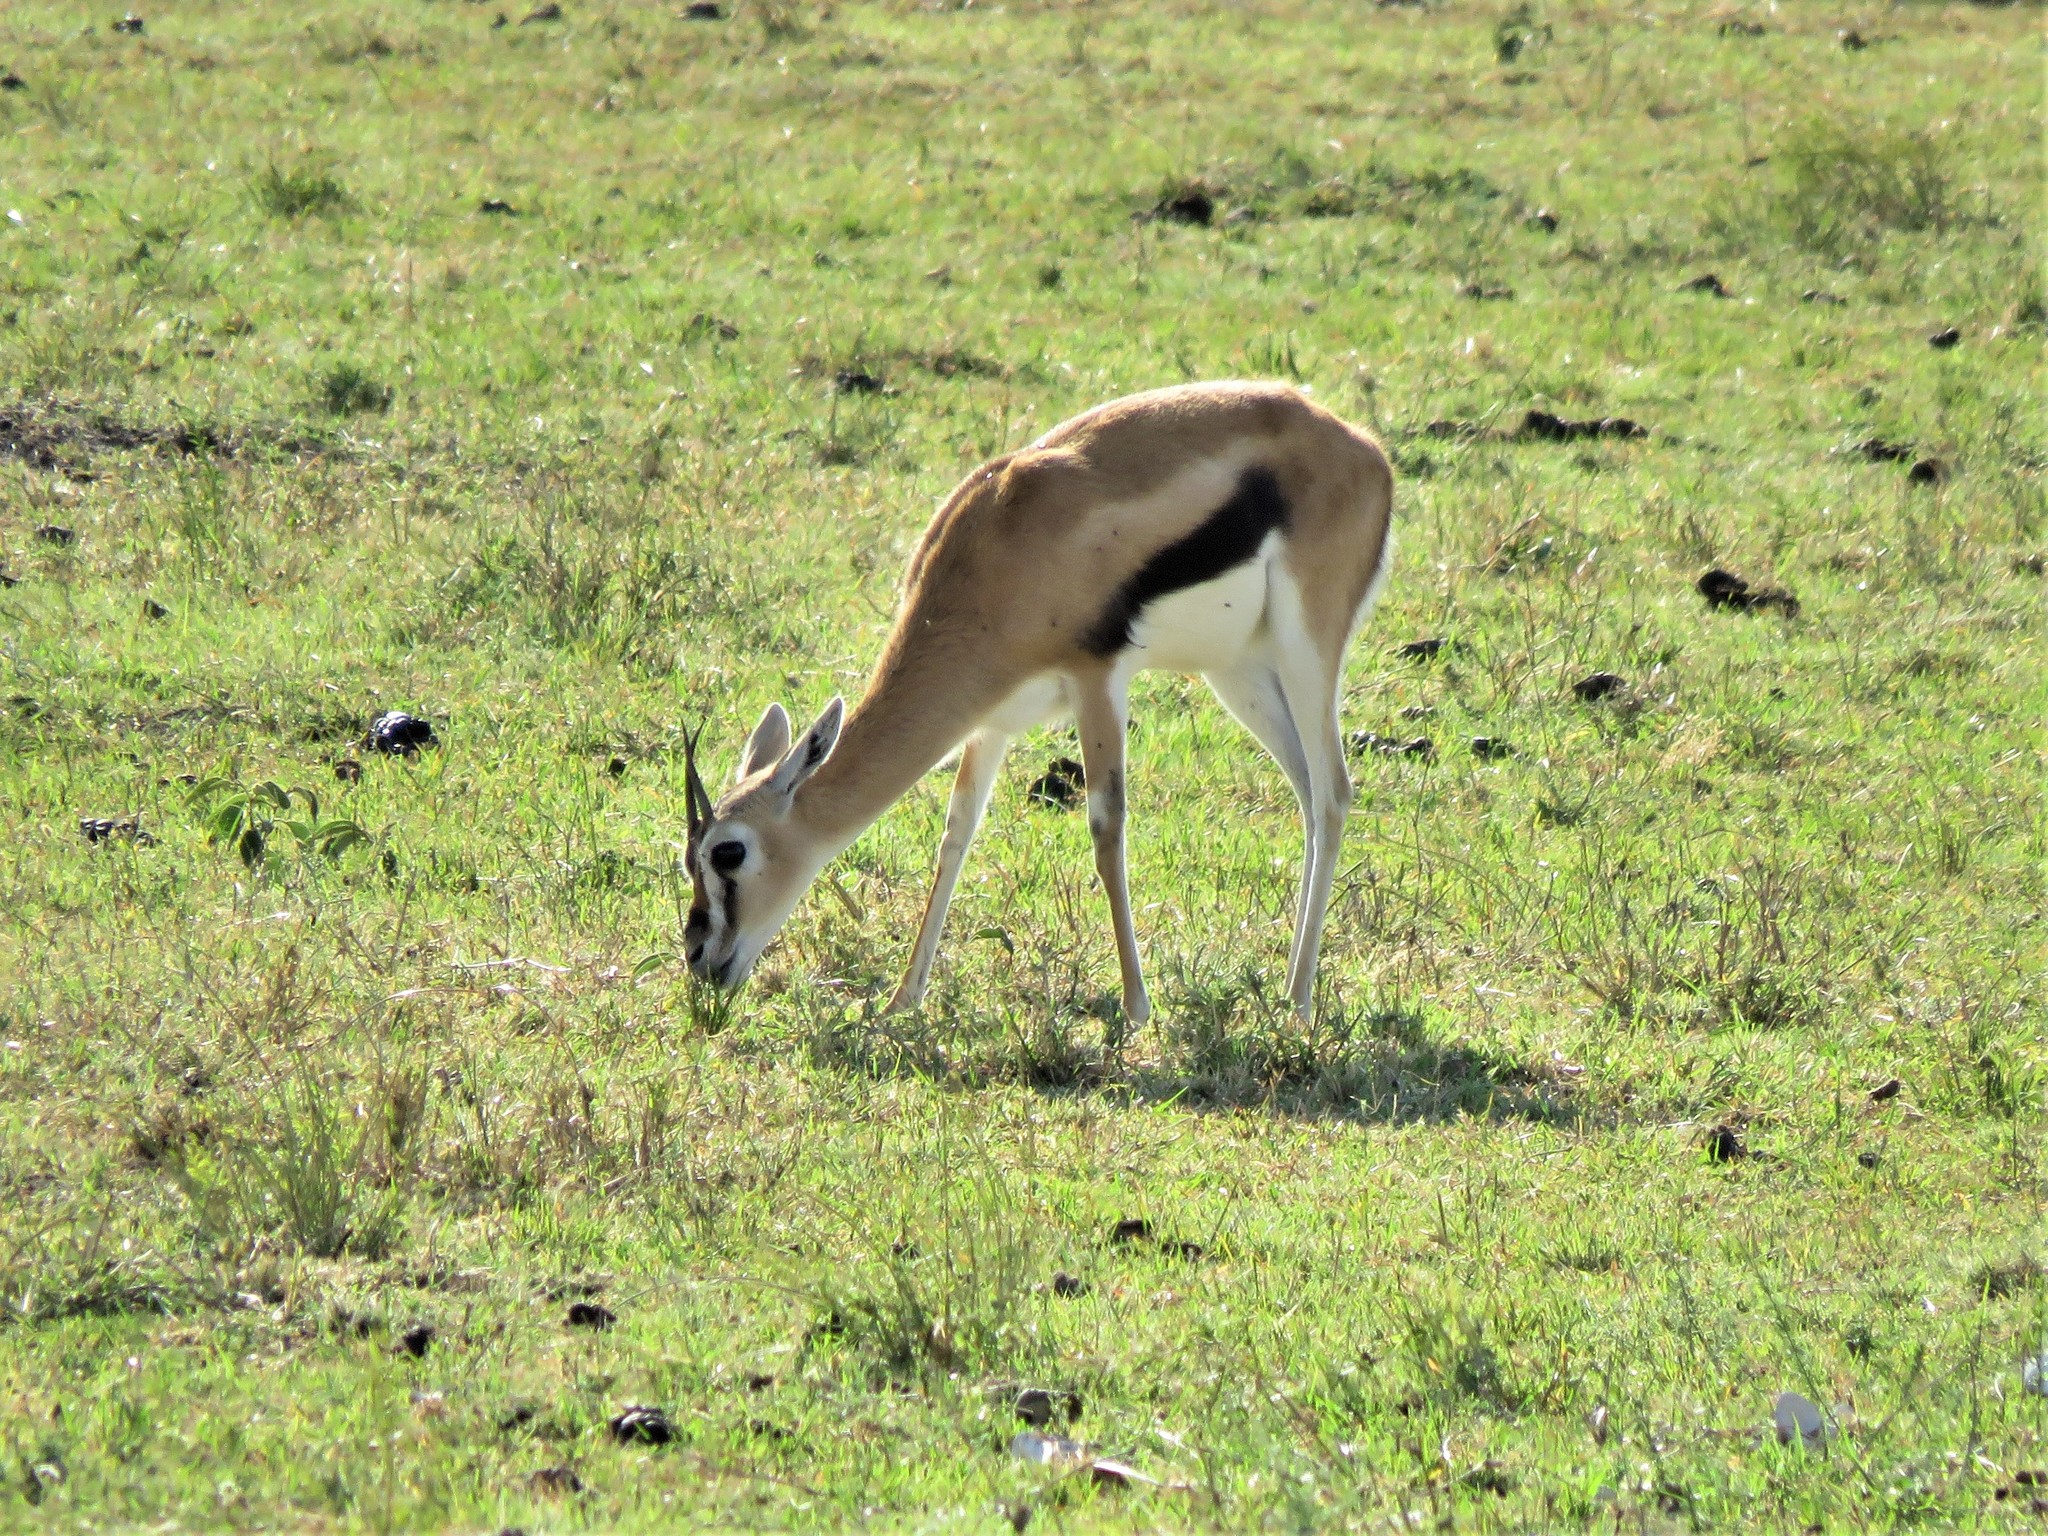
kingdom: Animalia
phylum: Chordata
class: Mammalia
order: Artiodactyla
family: Bovidae
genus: Eudorcas
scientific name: Eudorcas thomsonii
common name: Thomson's gazelle
